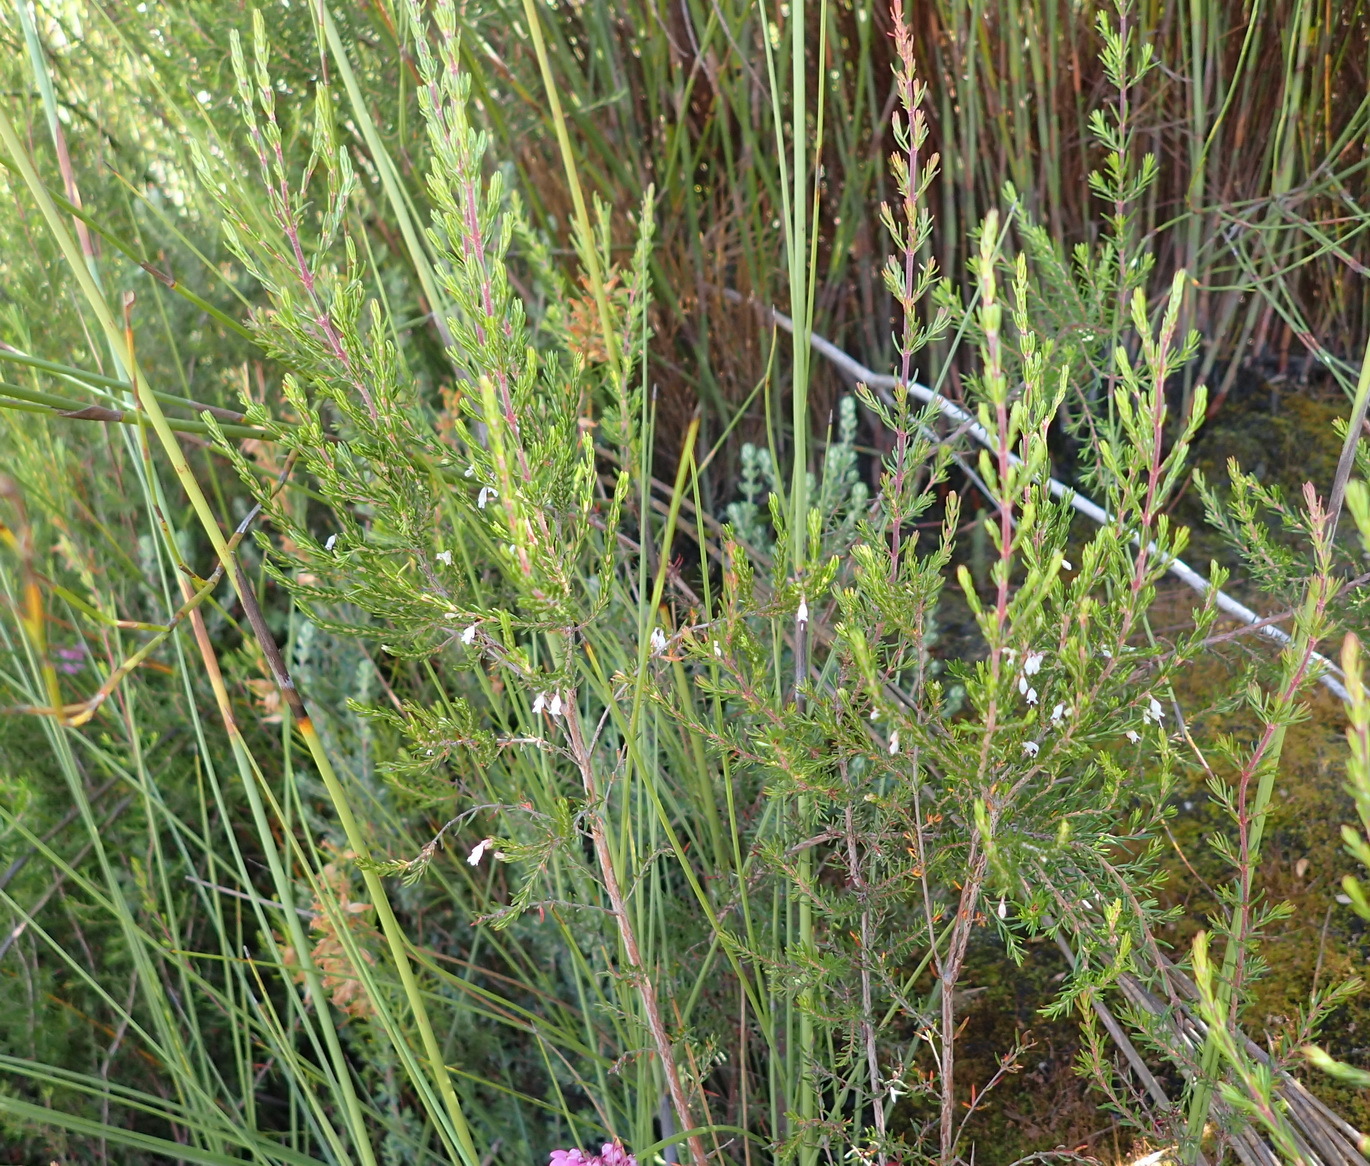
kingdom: Plantae
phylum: Tracheophyta
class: Magnoliopsida
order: Ericales
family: Ericaceae
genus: Erica
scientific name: Erica fuscescens
